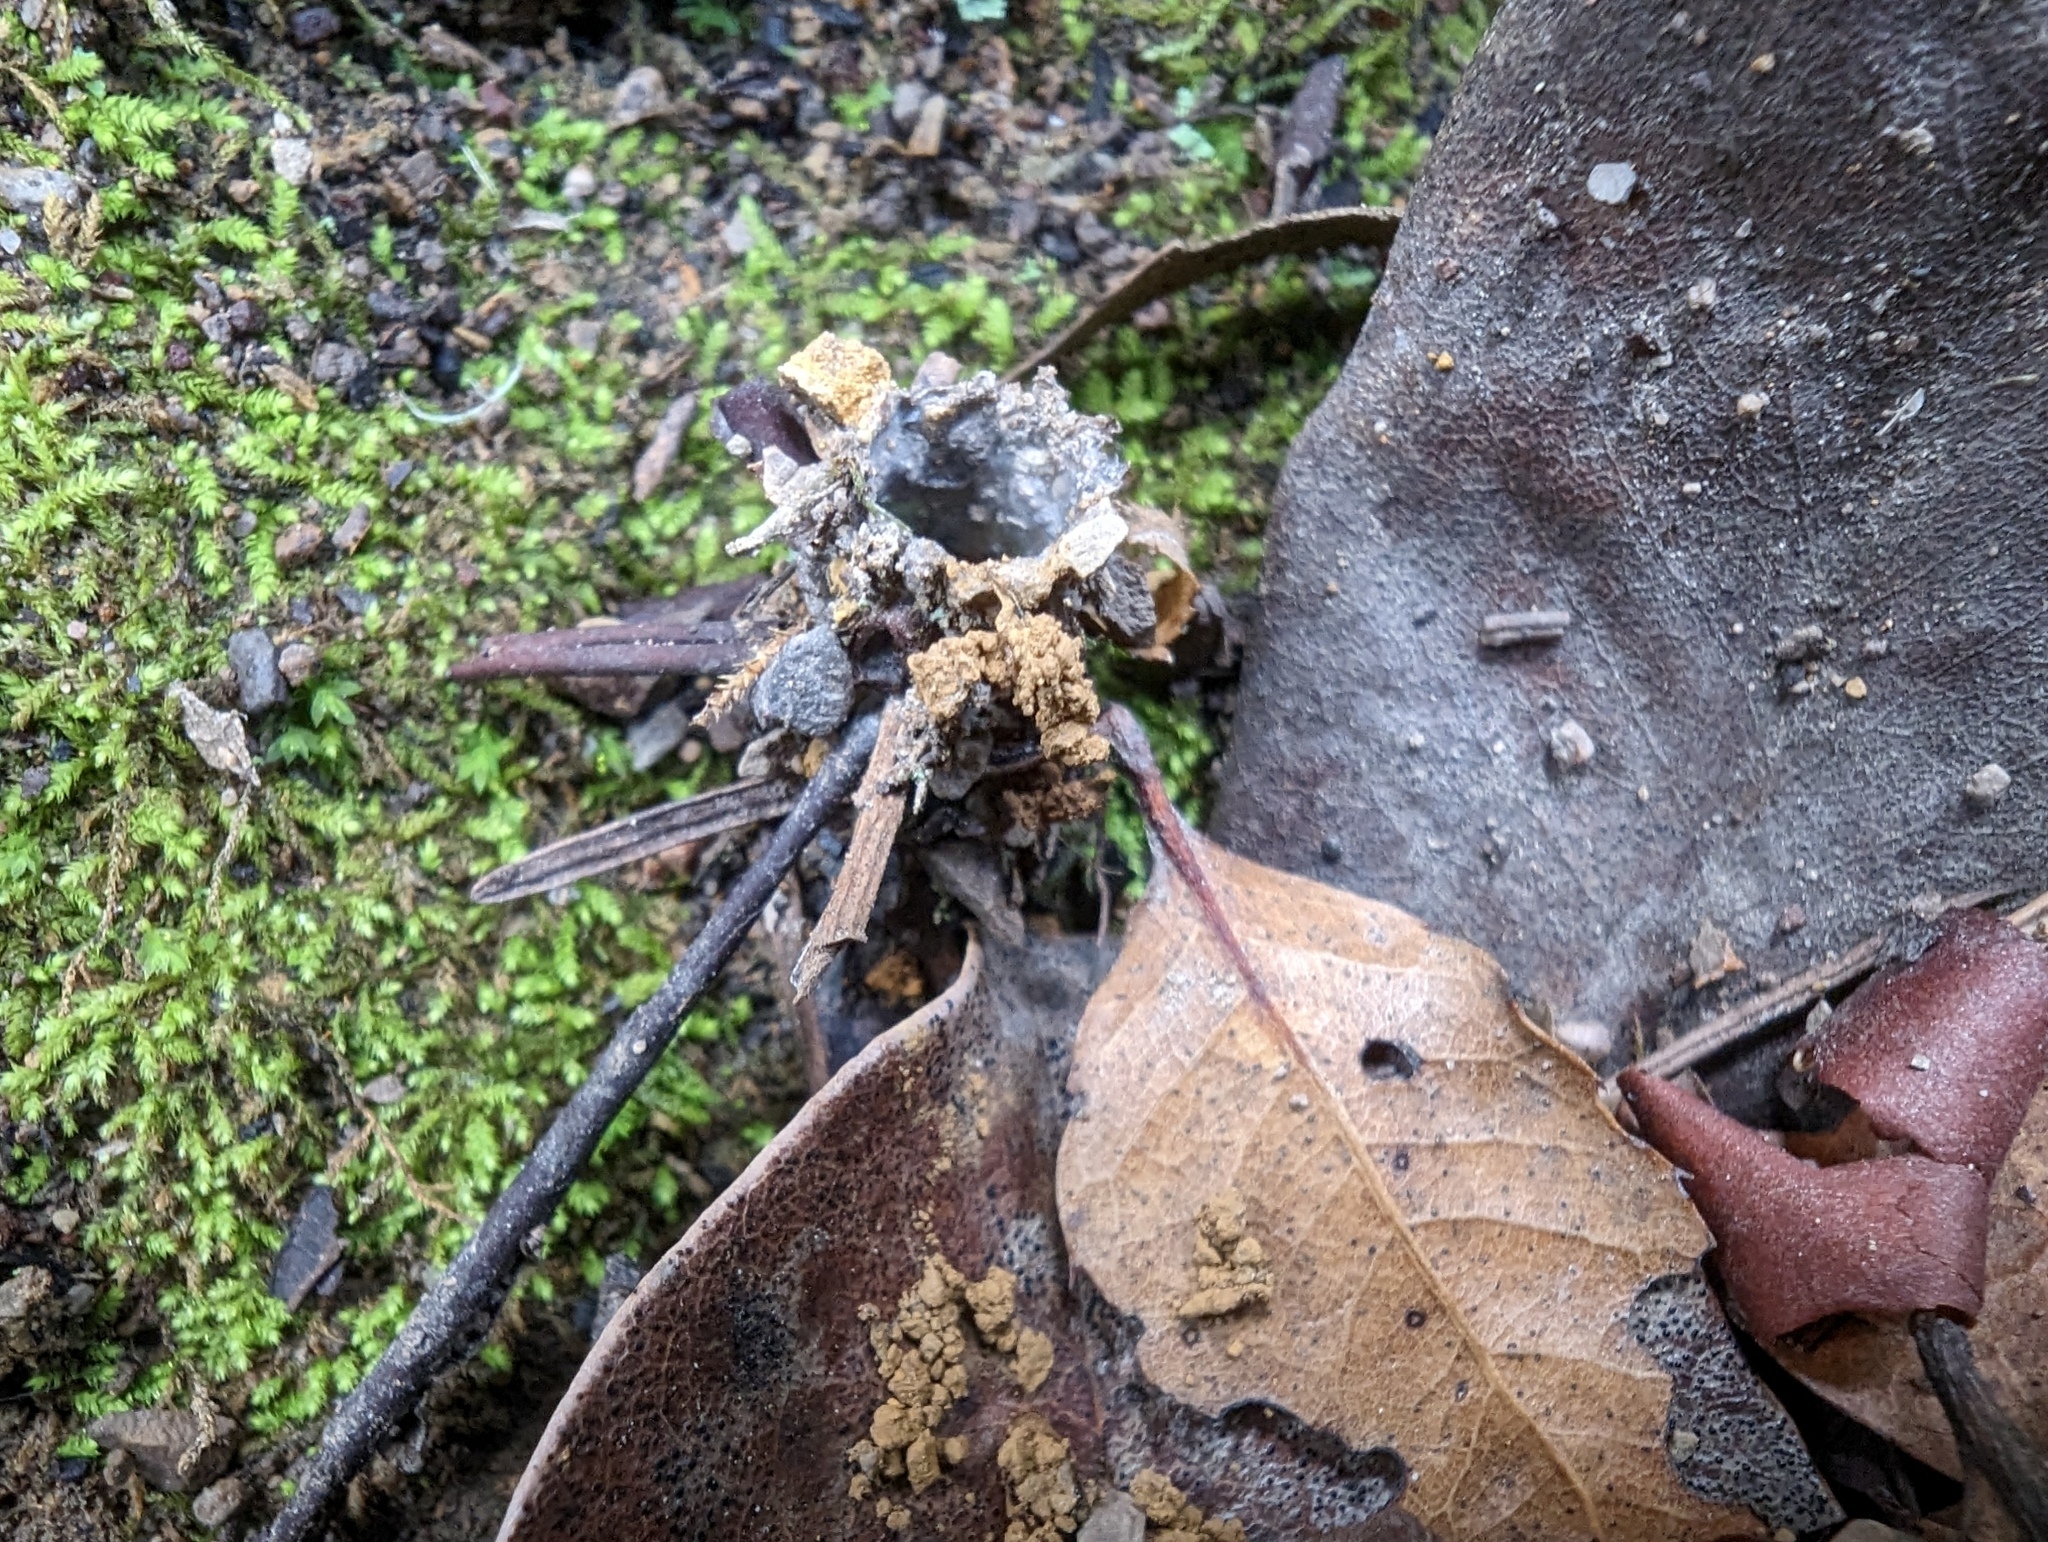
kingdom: Animalia
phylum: Arthropoda
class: Arachnida
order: Araneae
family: Antrodiaetidae
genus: Atypoides
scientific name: Atypoides riversi
